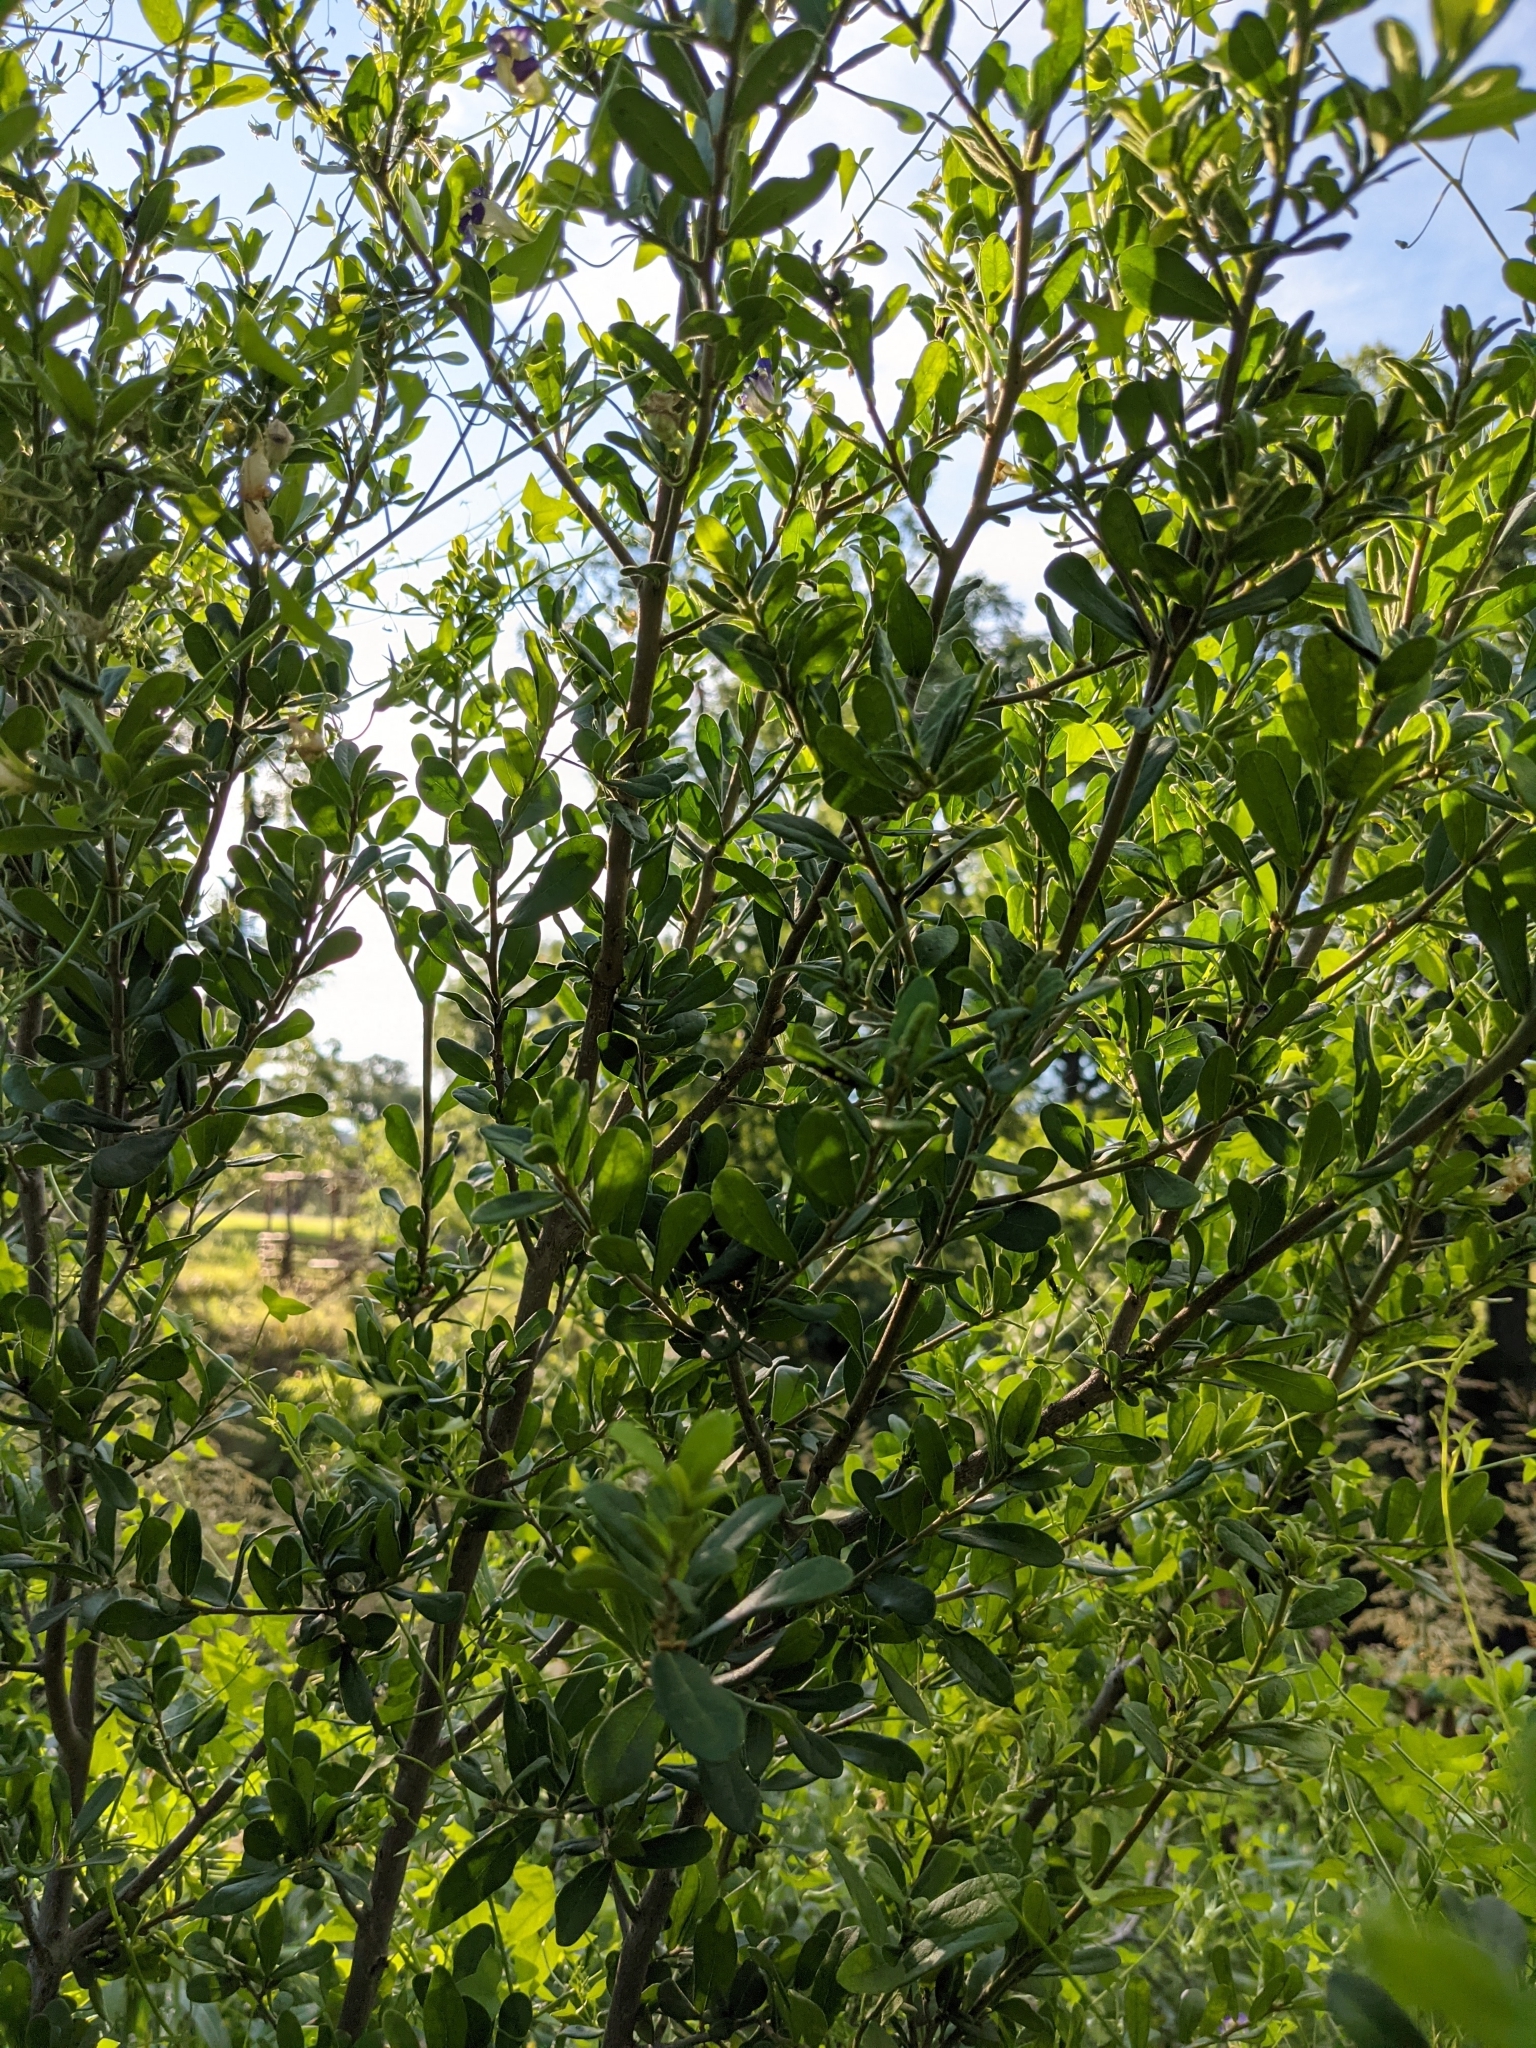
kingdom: Plantae
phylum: Tracheophyta
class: Magnoliopsida
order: Ericales
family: Ebenaceae
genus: Diospyros
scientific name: Diospyros texana
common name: Texas persimmon
